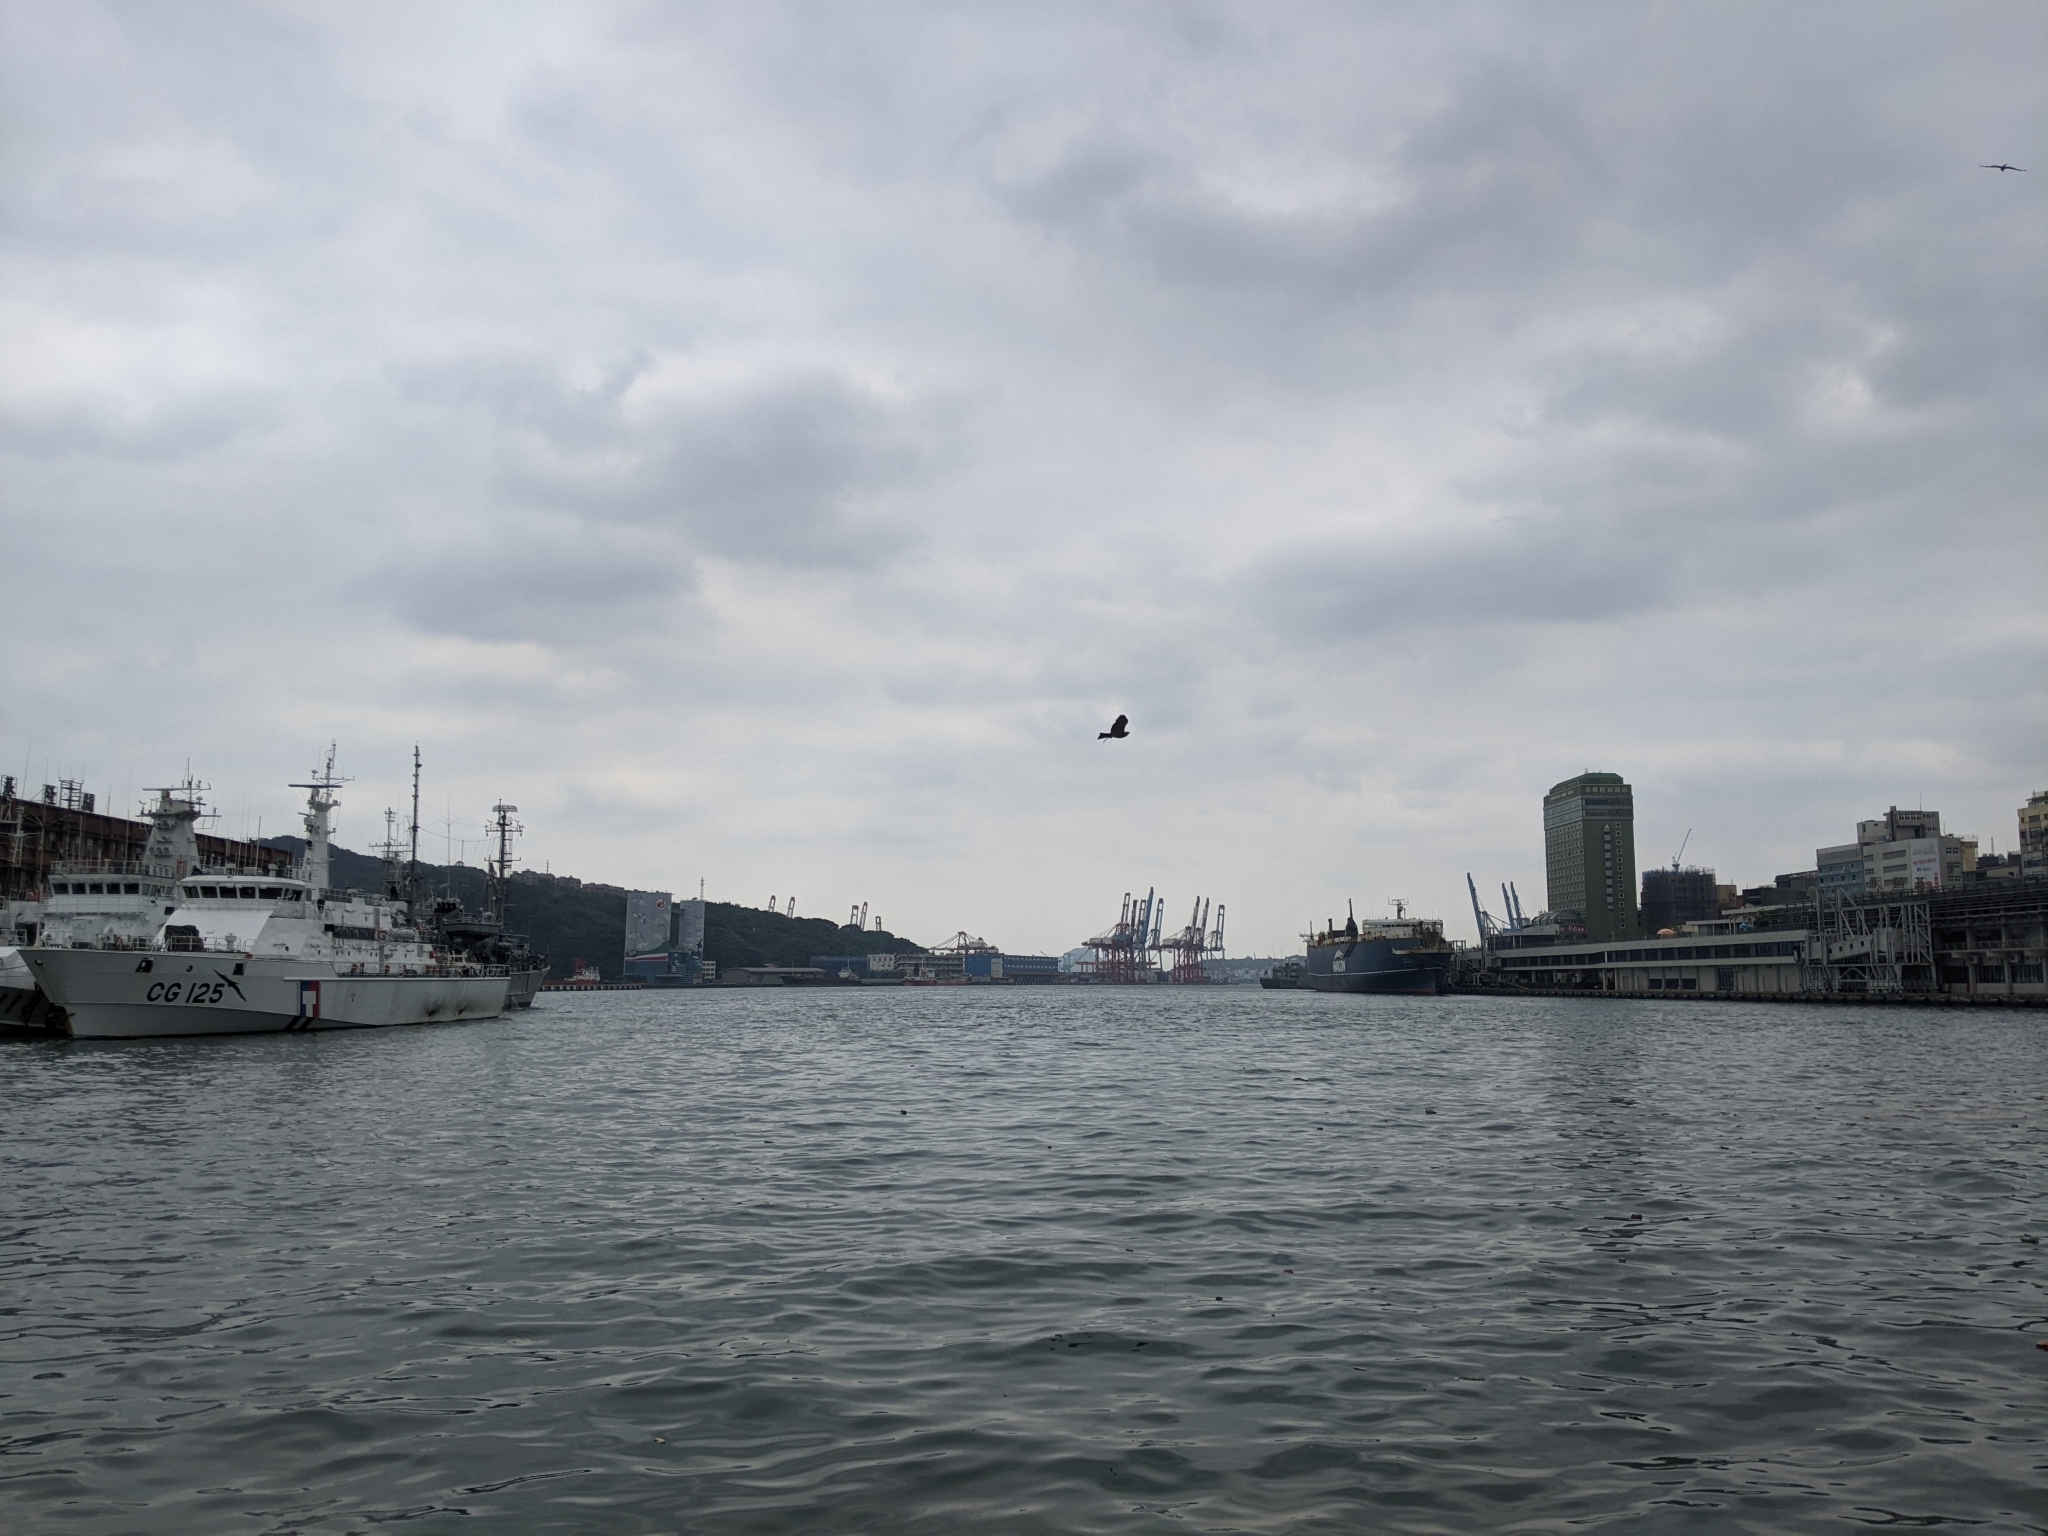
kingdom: Animalia
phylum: Chordata
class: Aves
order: Accipitriformes
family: Accipitridae
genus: Milvus
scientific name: Milvus migrans
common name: Black kite
